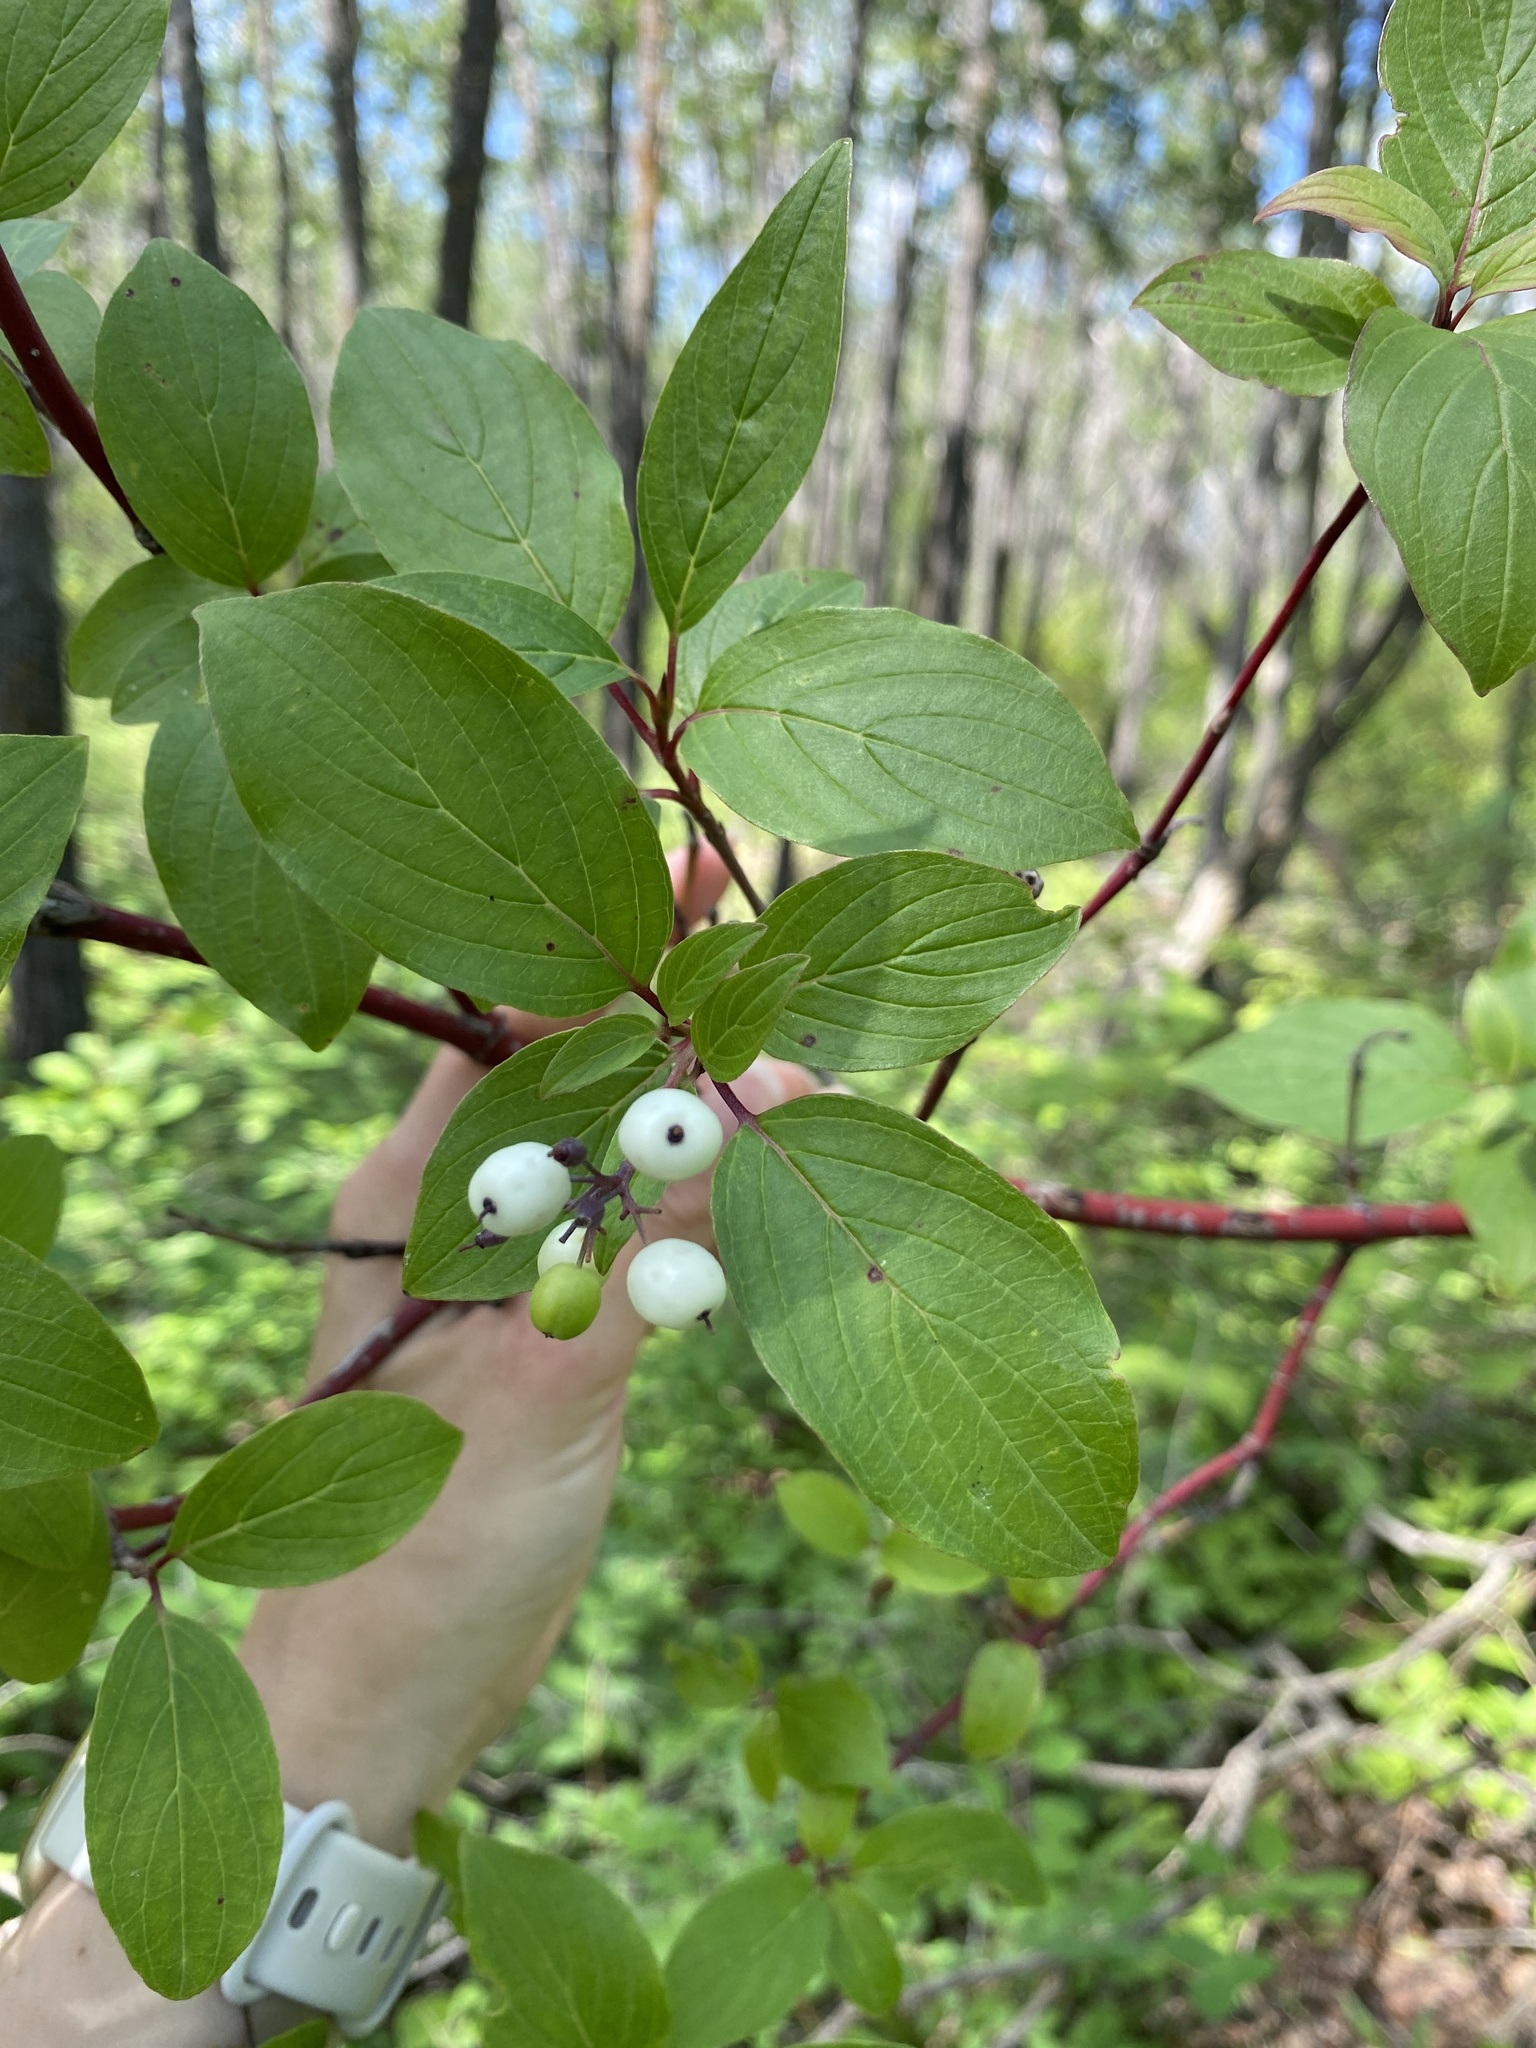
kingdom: Plantae
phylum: Tracheophyta
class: Magnoliopsida
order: Cornales
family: Cornaceae
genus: Cornus
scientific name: Cornus sericea
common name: Red-osier dogwood
